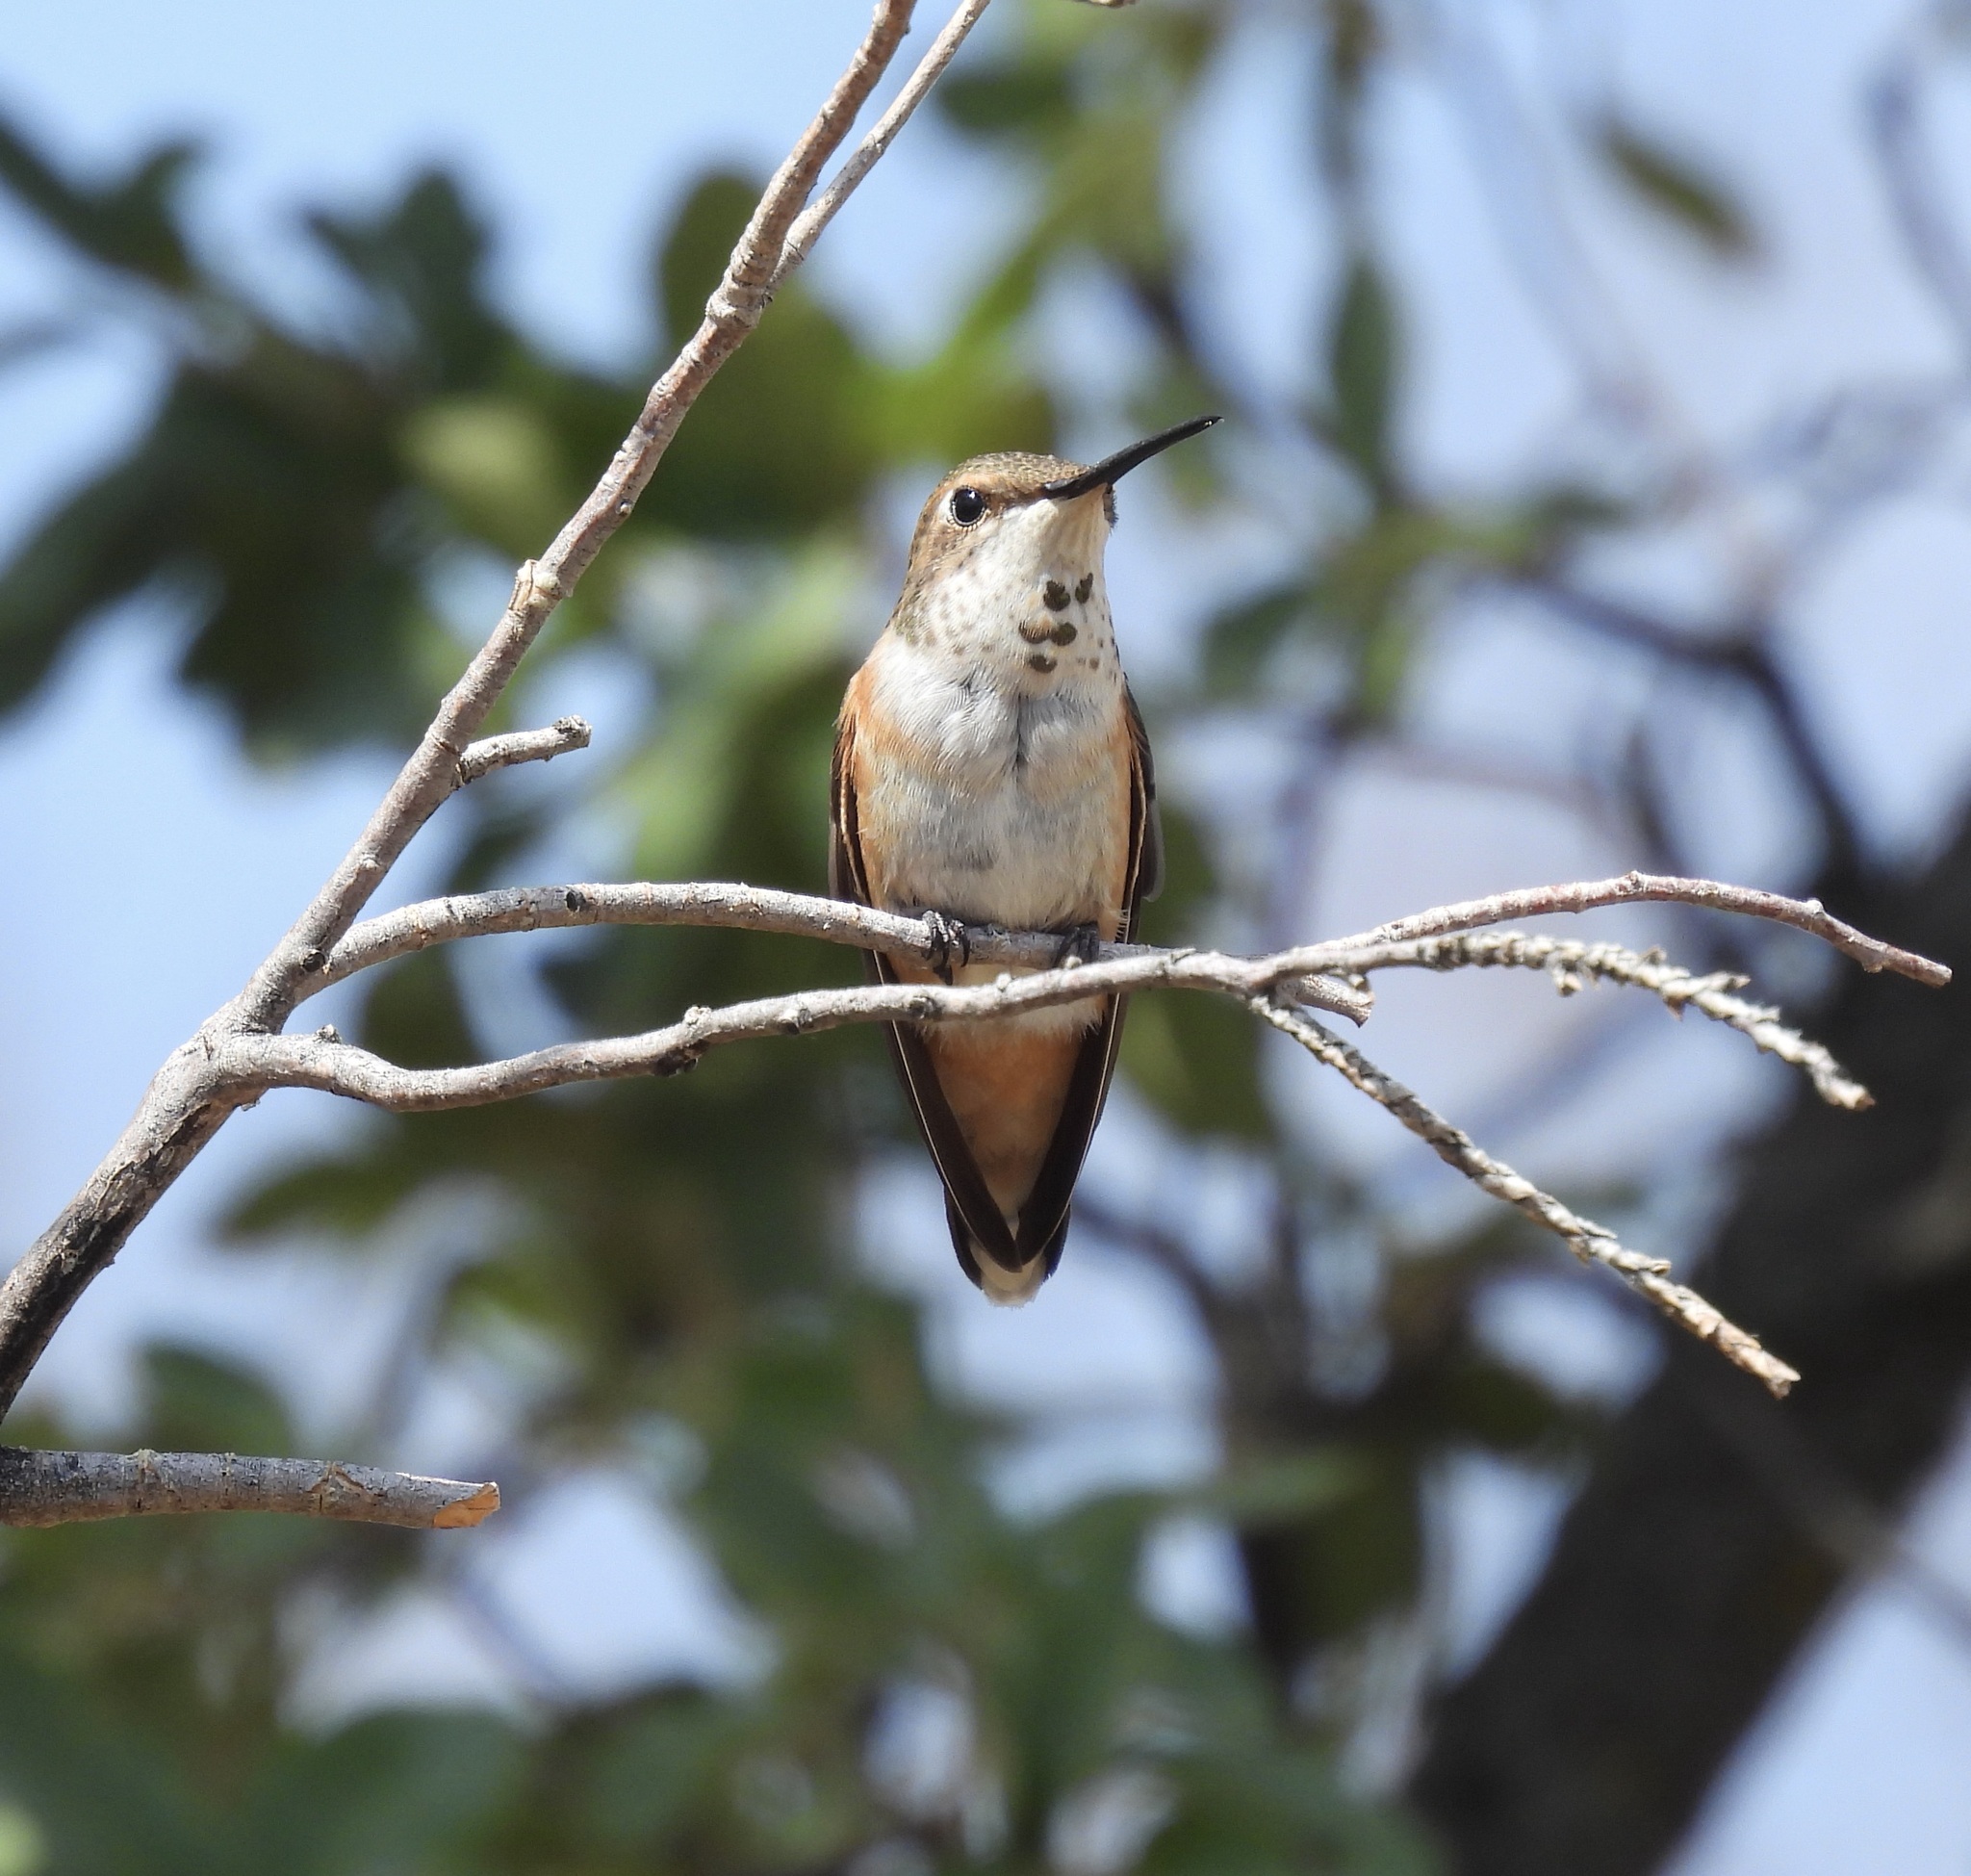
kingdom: Animalia
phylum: Chordata
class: Aves
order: Apodiformes
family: Trochilidae
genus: Selasphorus
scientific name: Selasphorus rufus
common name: Rufous hummingbird
